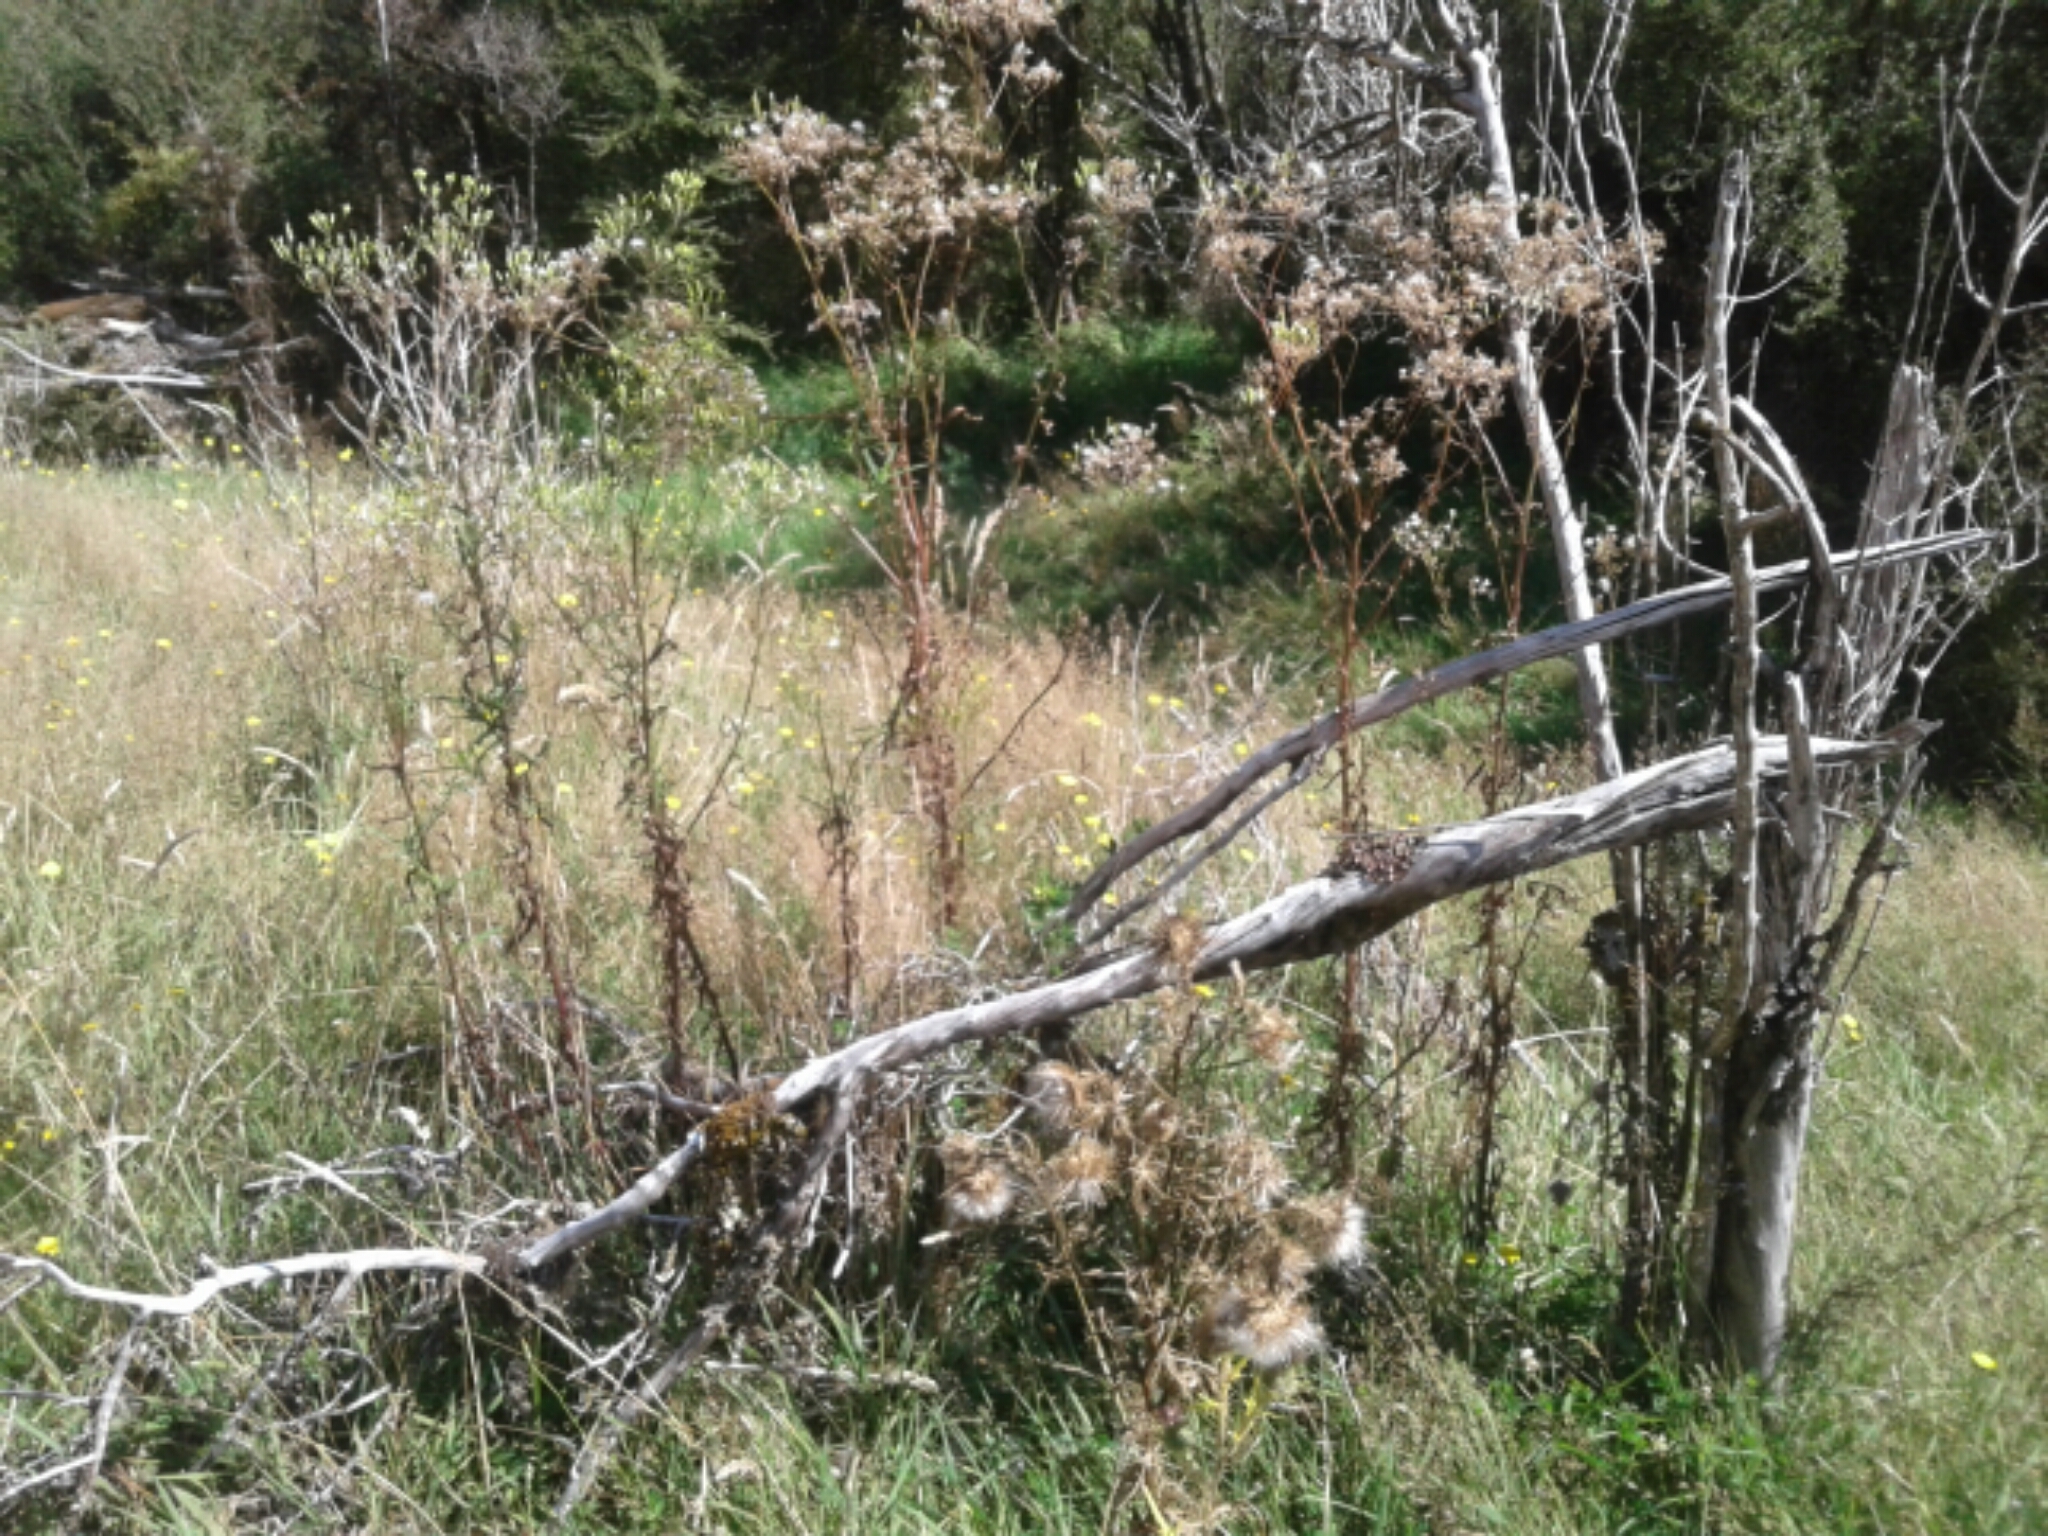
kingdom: Plantae
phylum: Tracheophyta
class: Magnoliopsida
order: Asterales
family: Asteraceae
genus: Senecio
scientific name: Senecio minimus
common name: Toothed fireweed
